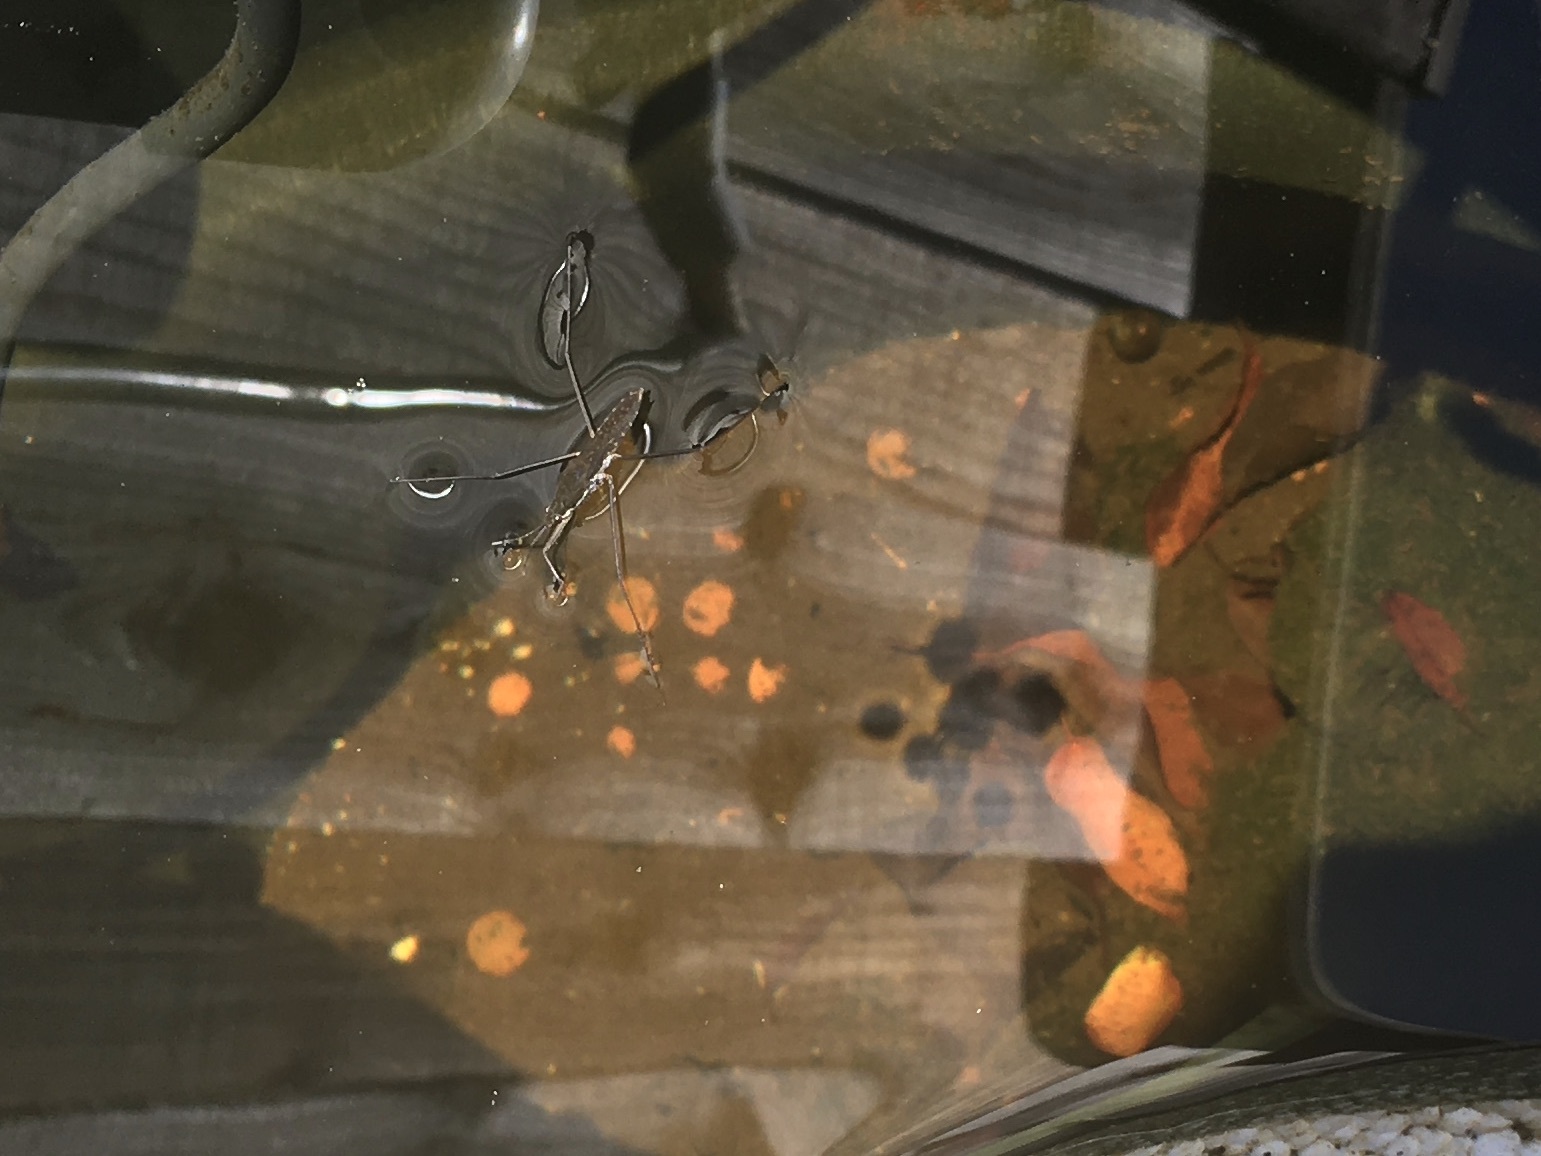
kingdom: Animalia
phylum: Arthropoda
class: Insecta
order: Hemiptera
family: Gerridae
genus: Aquarius
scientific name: Aquarius remigis
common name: Common water strider
